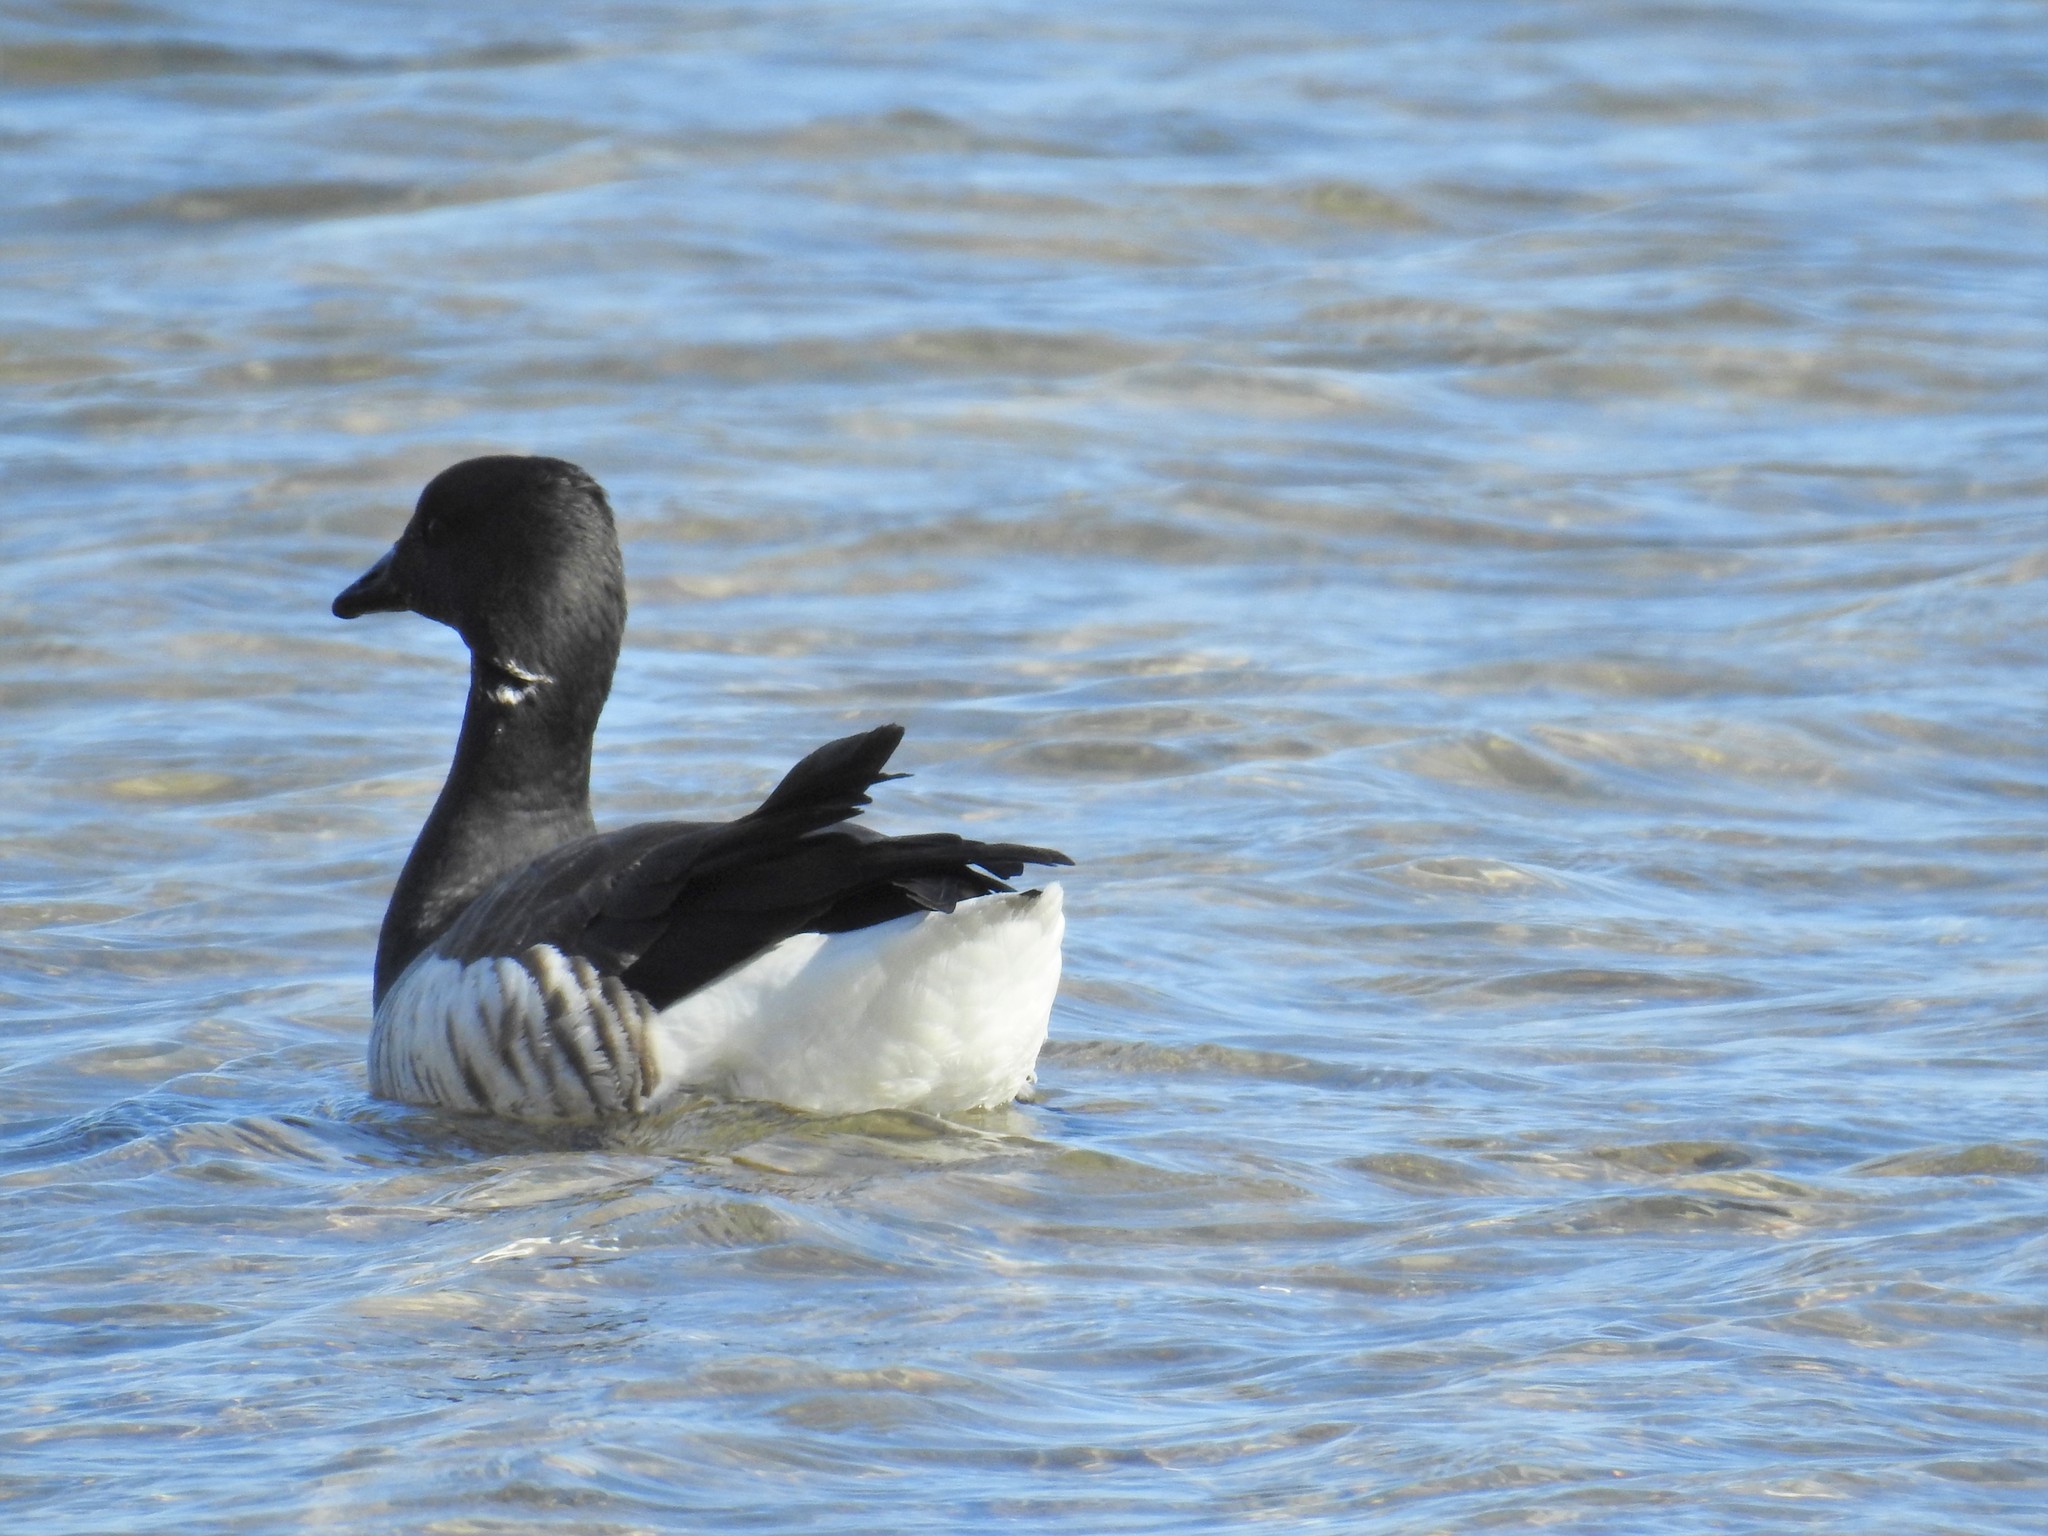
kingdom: Animalia
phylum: Chordata
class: Aves
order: Anseriformes
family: Anatidae
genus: Branta
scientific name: Branta bernicla
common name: Brant goose
